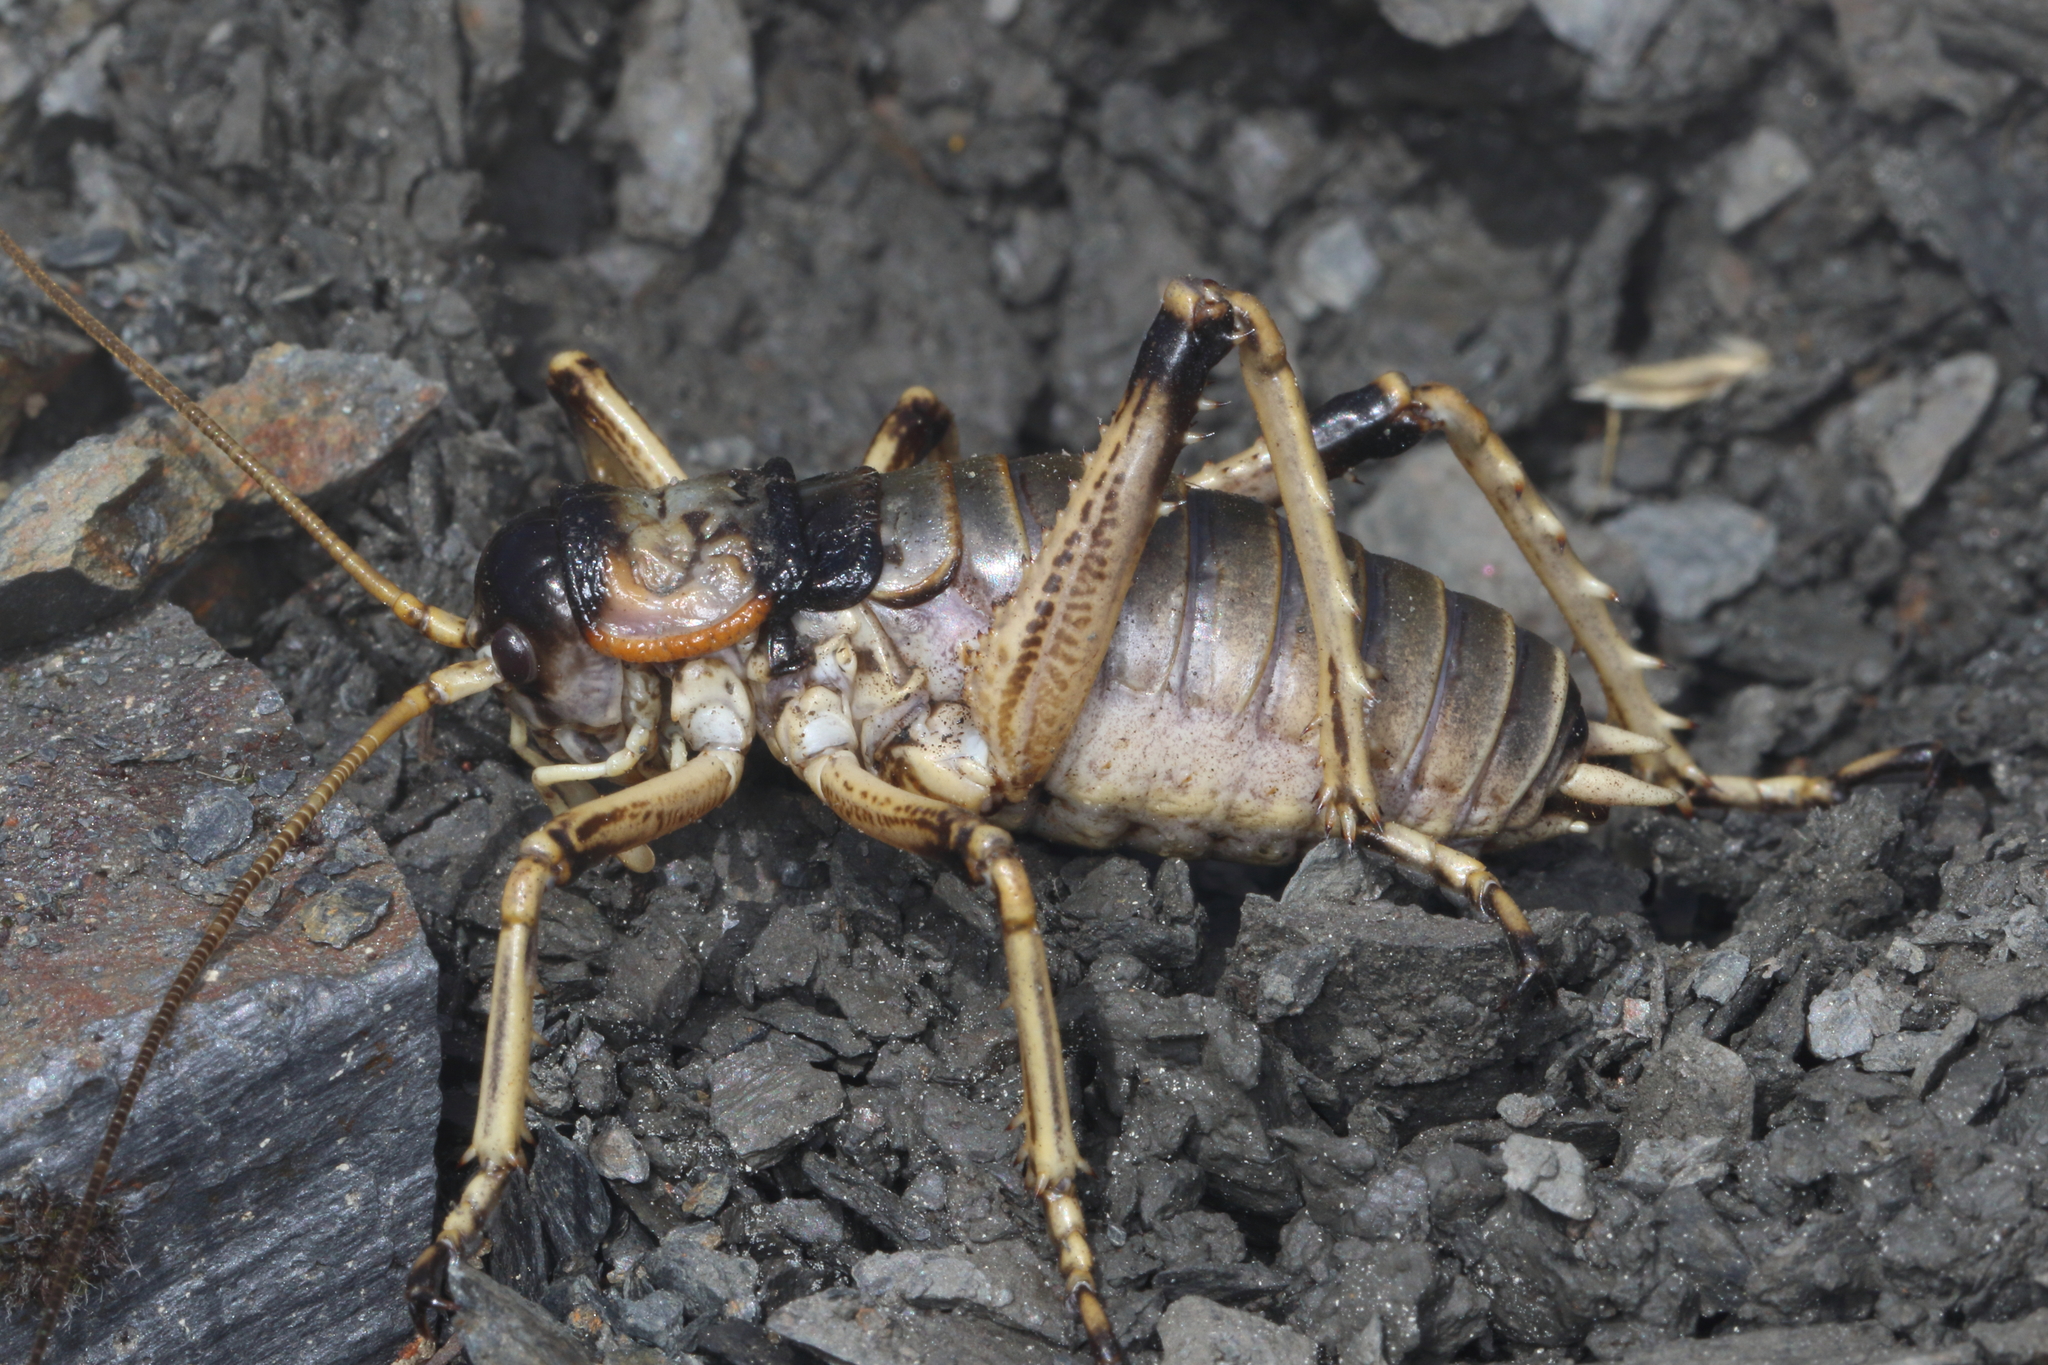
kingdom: Animalia
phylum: Arthropoda
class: Insecta
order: Orthoptera
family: Anostostomatidae
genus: Deinacrida
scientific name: Deinacrida connectens
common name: Scree weta
